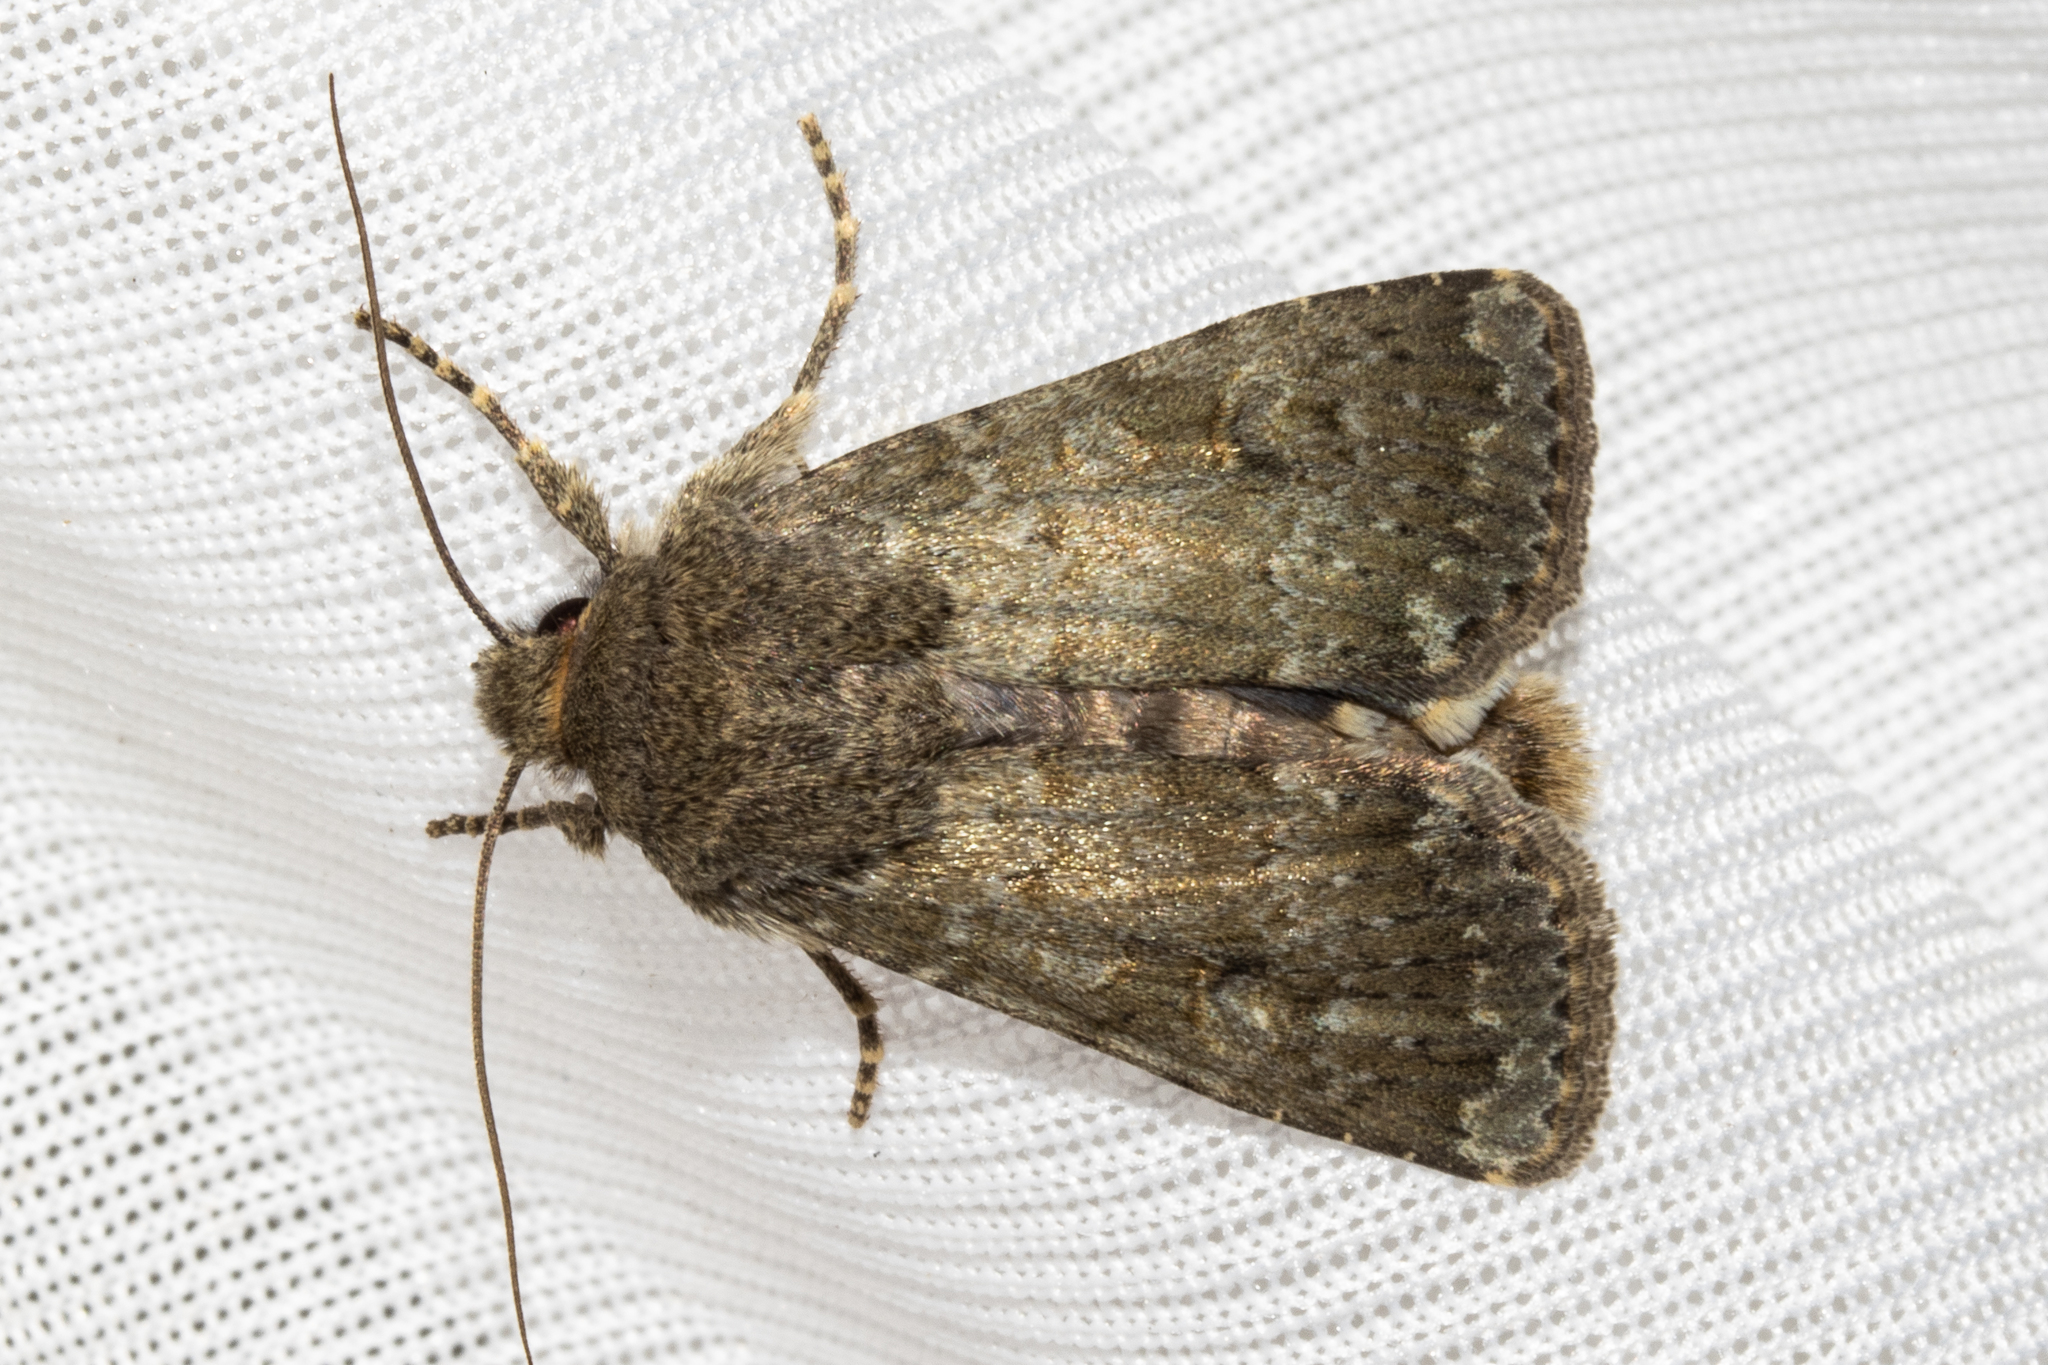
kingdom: Animalia
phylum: Arthropoda
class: Insecta
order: Lepidoptera
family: Noctuidae
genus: Ichneutica
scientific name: Ichneutica moderata
